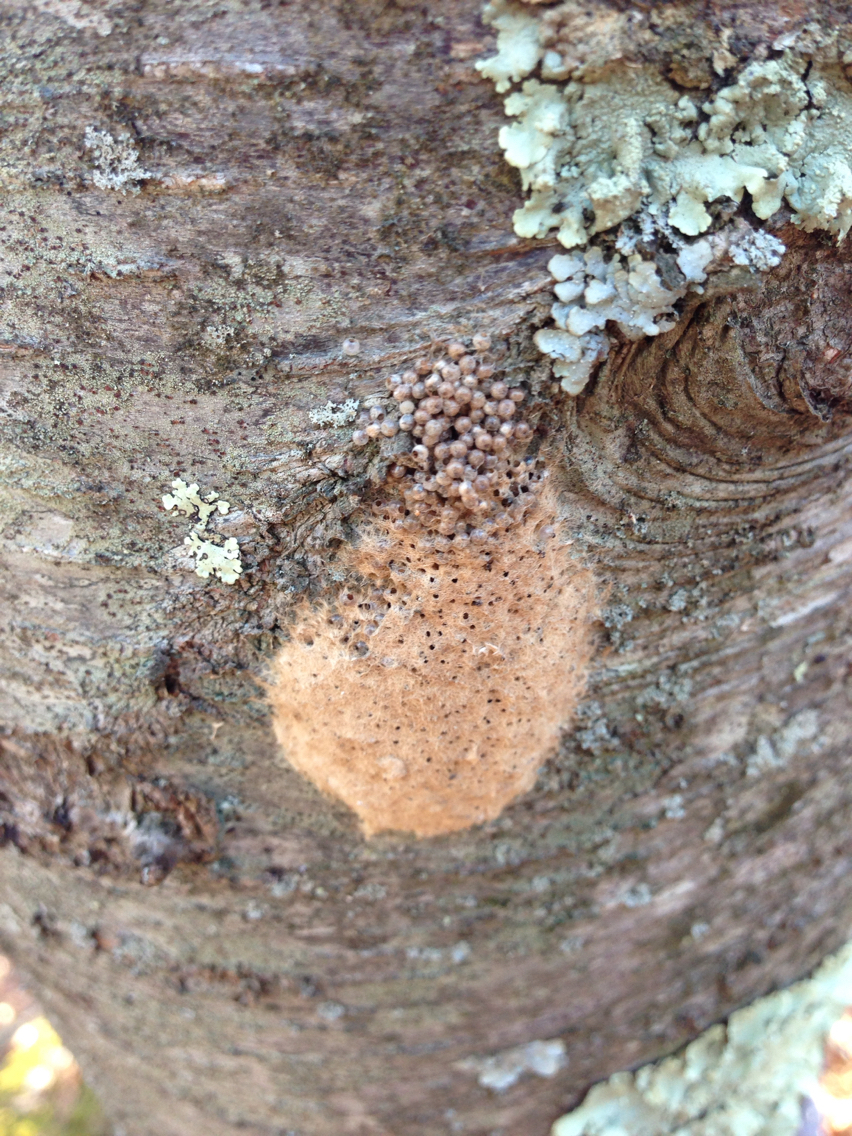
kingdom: Animalia
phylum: Arthropoda
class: Insecta
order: Lepidoptera
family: Erebidae
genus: Lymantria
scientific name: Lymantria dispar
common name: Gypsy moth
